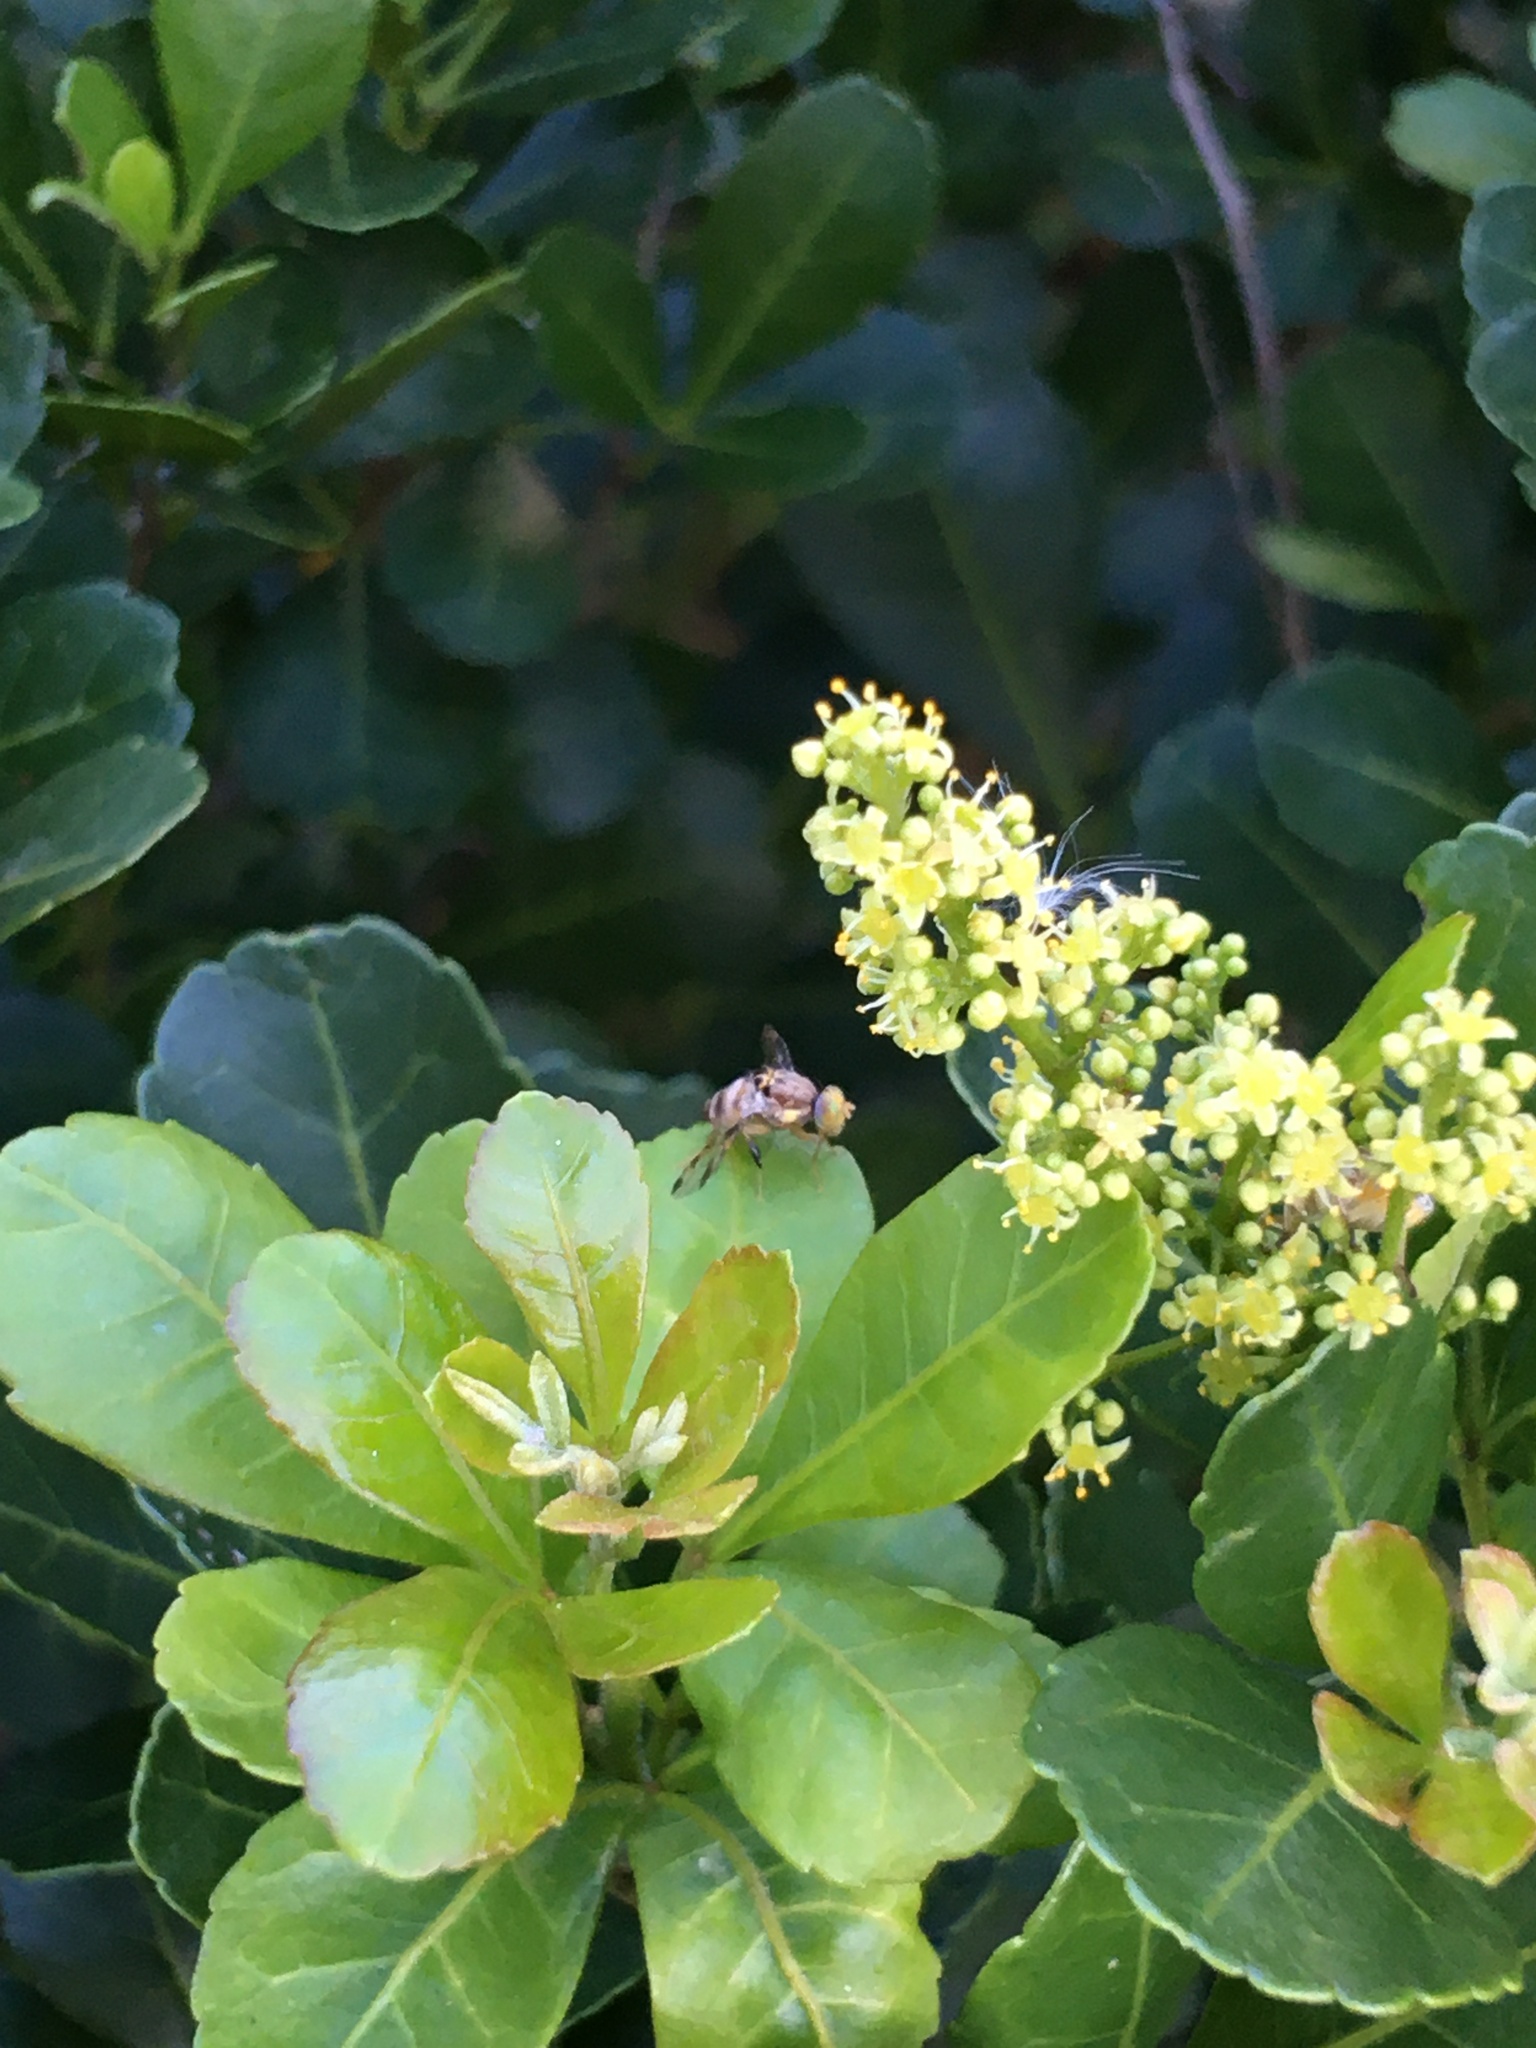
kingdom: Animalia
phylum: Arthropoda
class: Insecta
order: Diptera
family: Tephritidae
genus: Ceratitis
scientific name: Ceratitis quilicii
